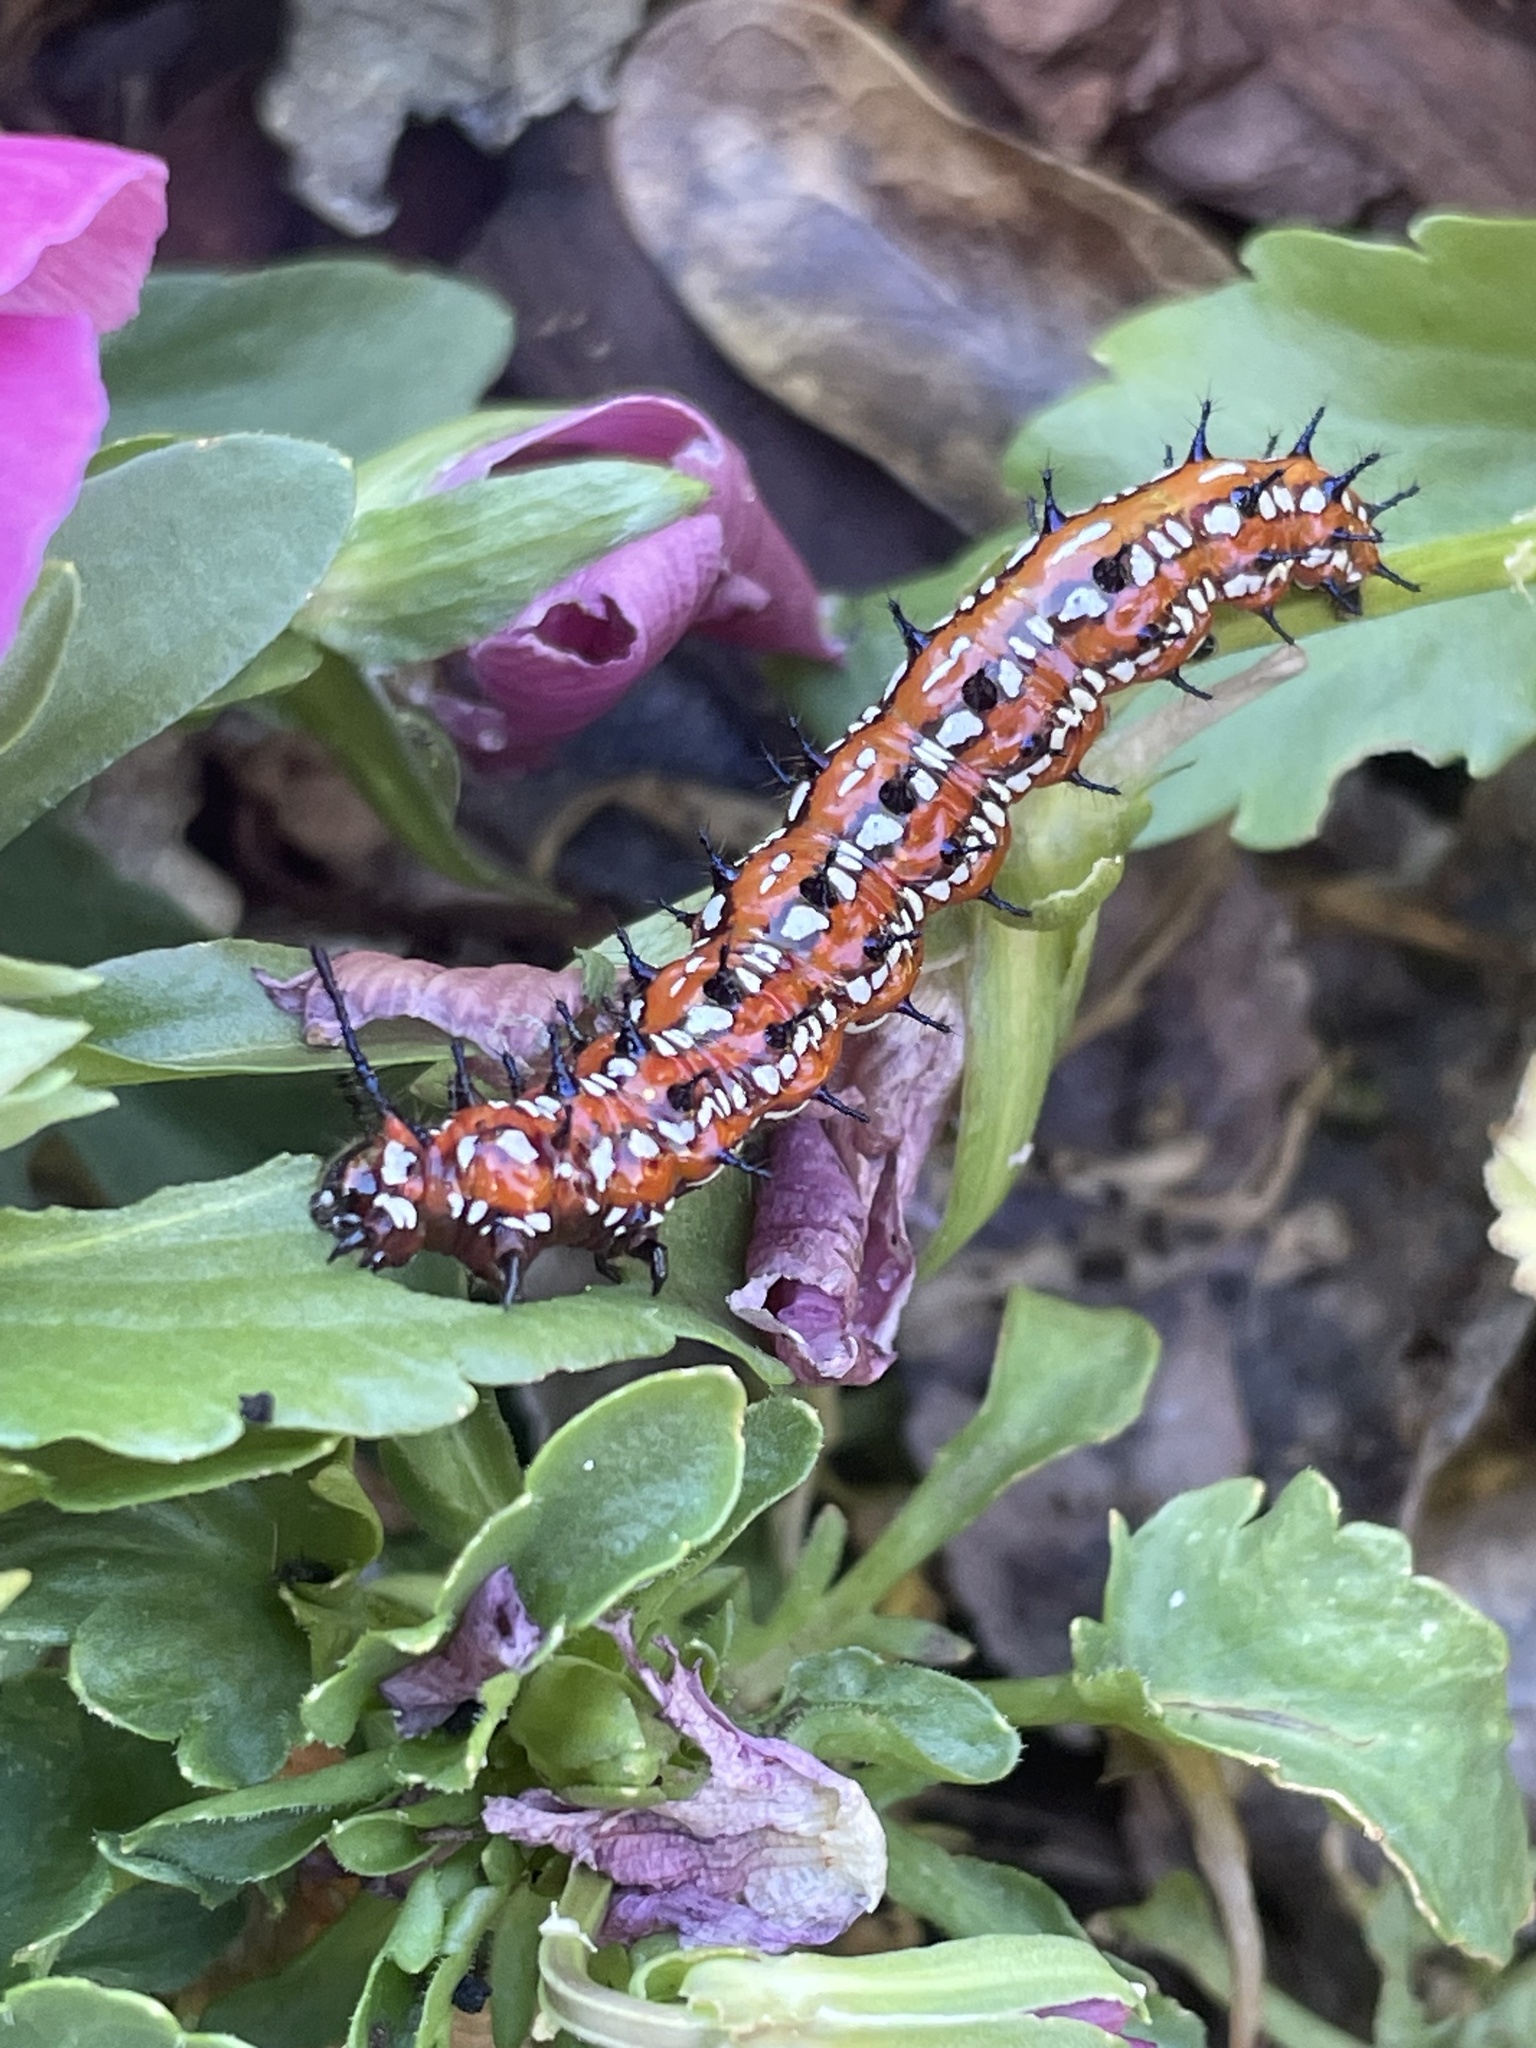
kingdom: Animalia
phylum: Arthropoda
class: Insecta
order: Lepidoptera
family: Nymphalidae
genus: Euptoieta
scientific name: Euptoieta claudia
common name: Variegated fritillary
